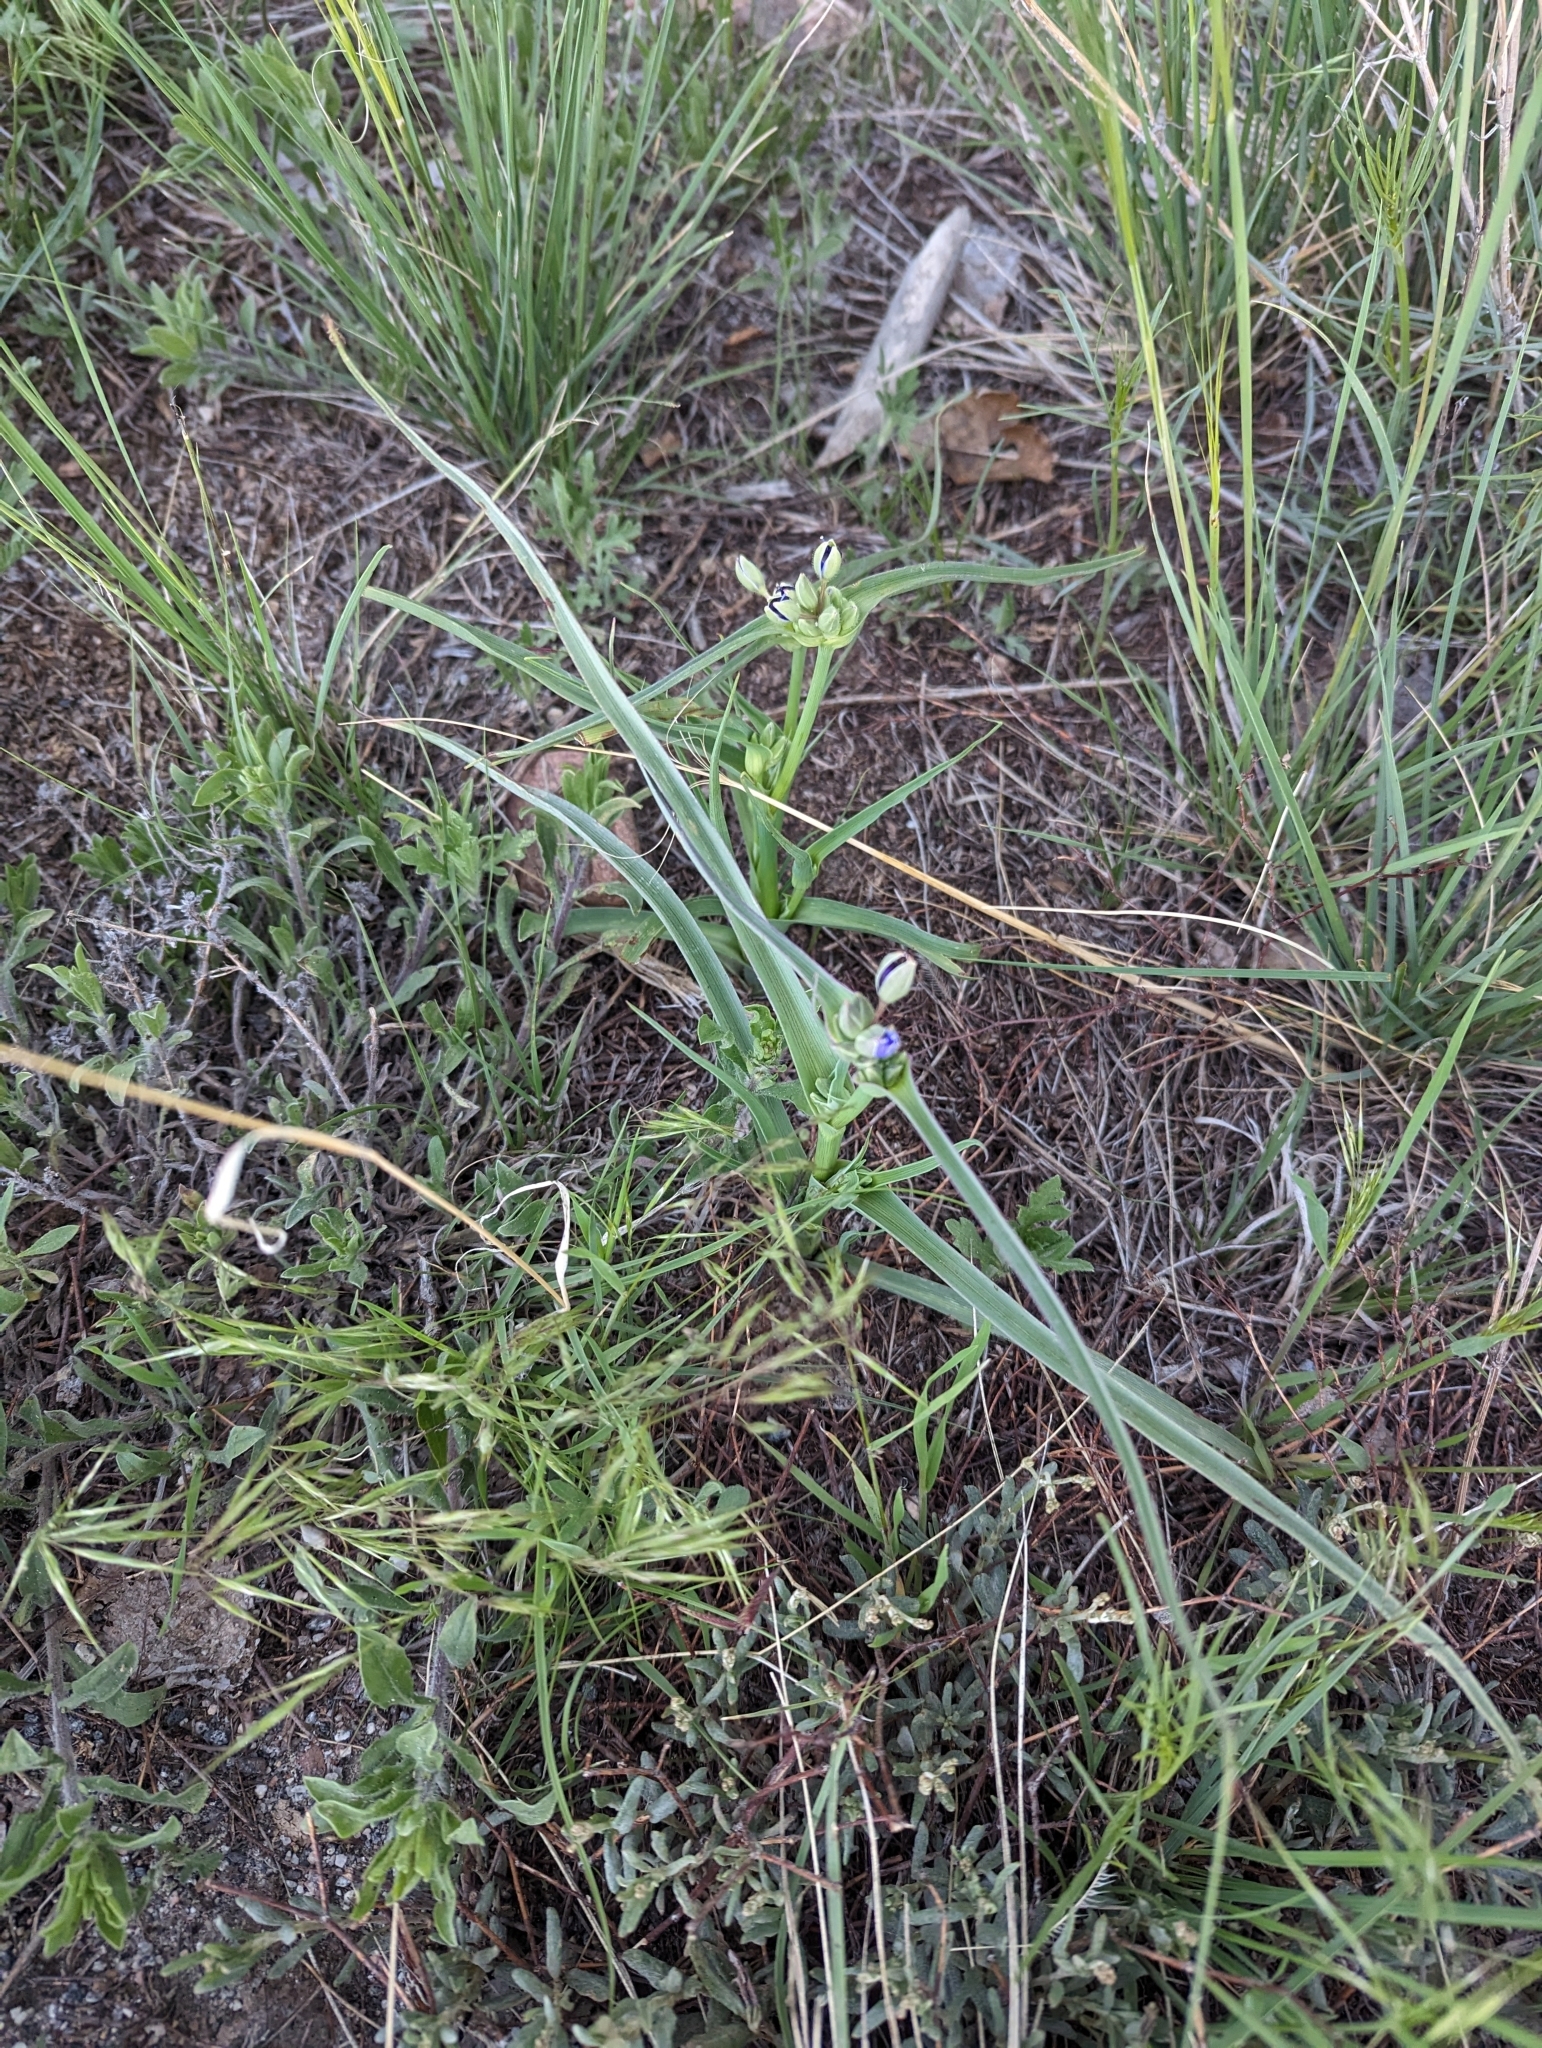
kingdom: Plantae
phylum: Tracheophyta
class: Liliopsida
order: Commelinales
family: Commelinaceae
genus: Tradescantia
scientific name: Tradescantia occidentalis
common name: Prairie spiderwort
